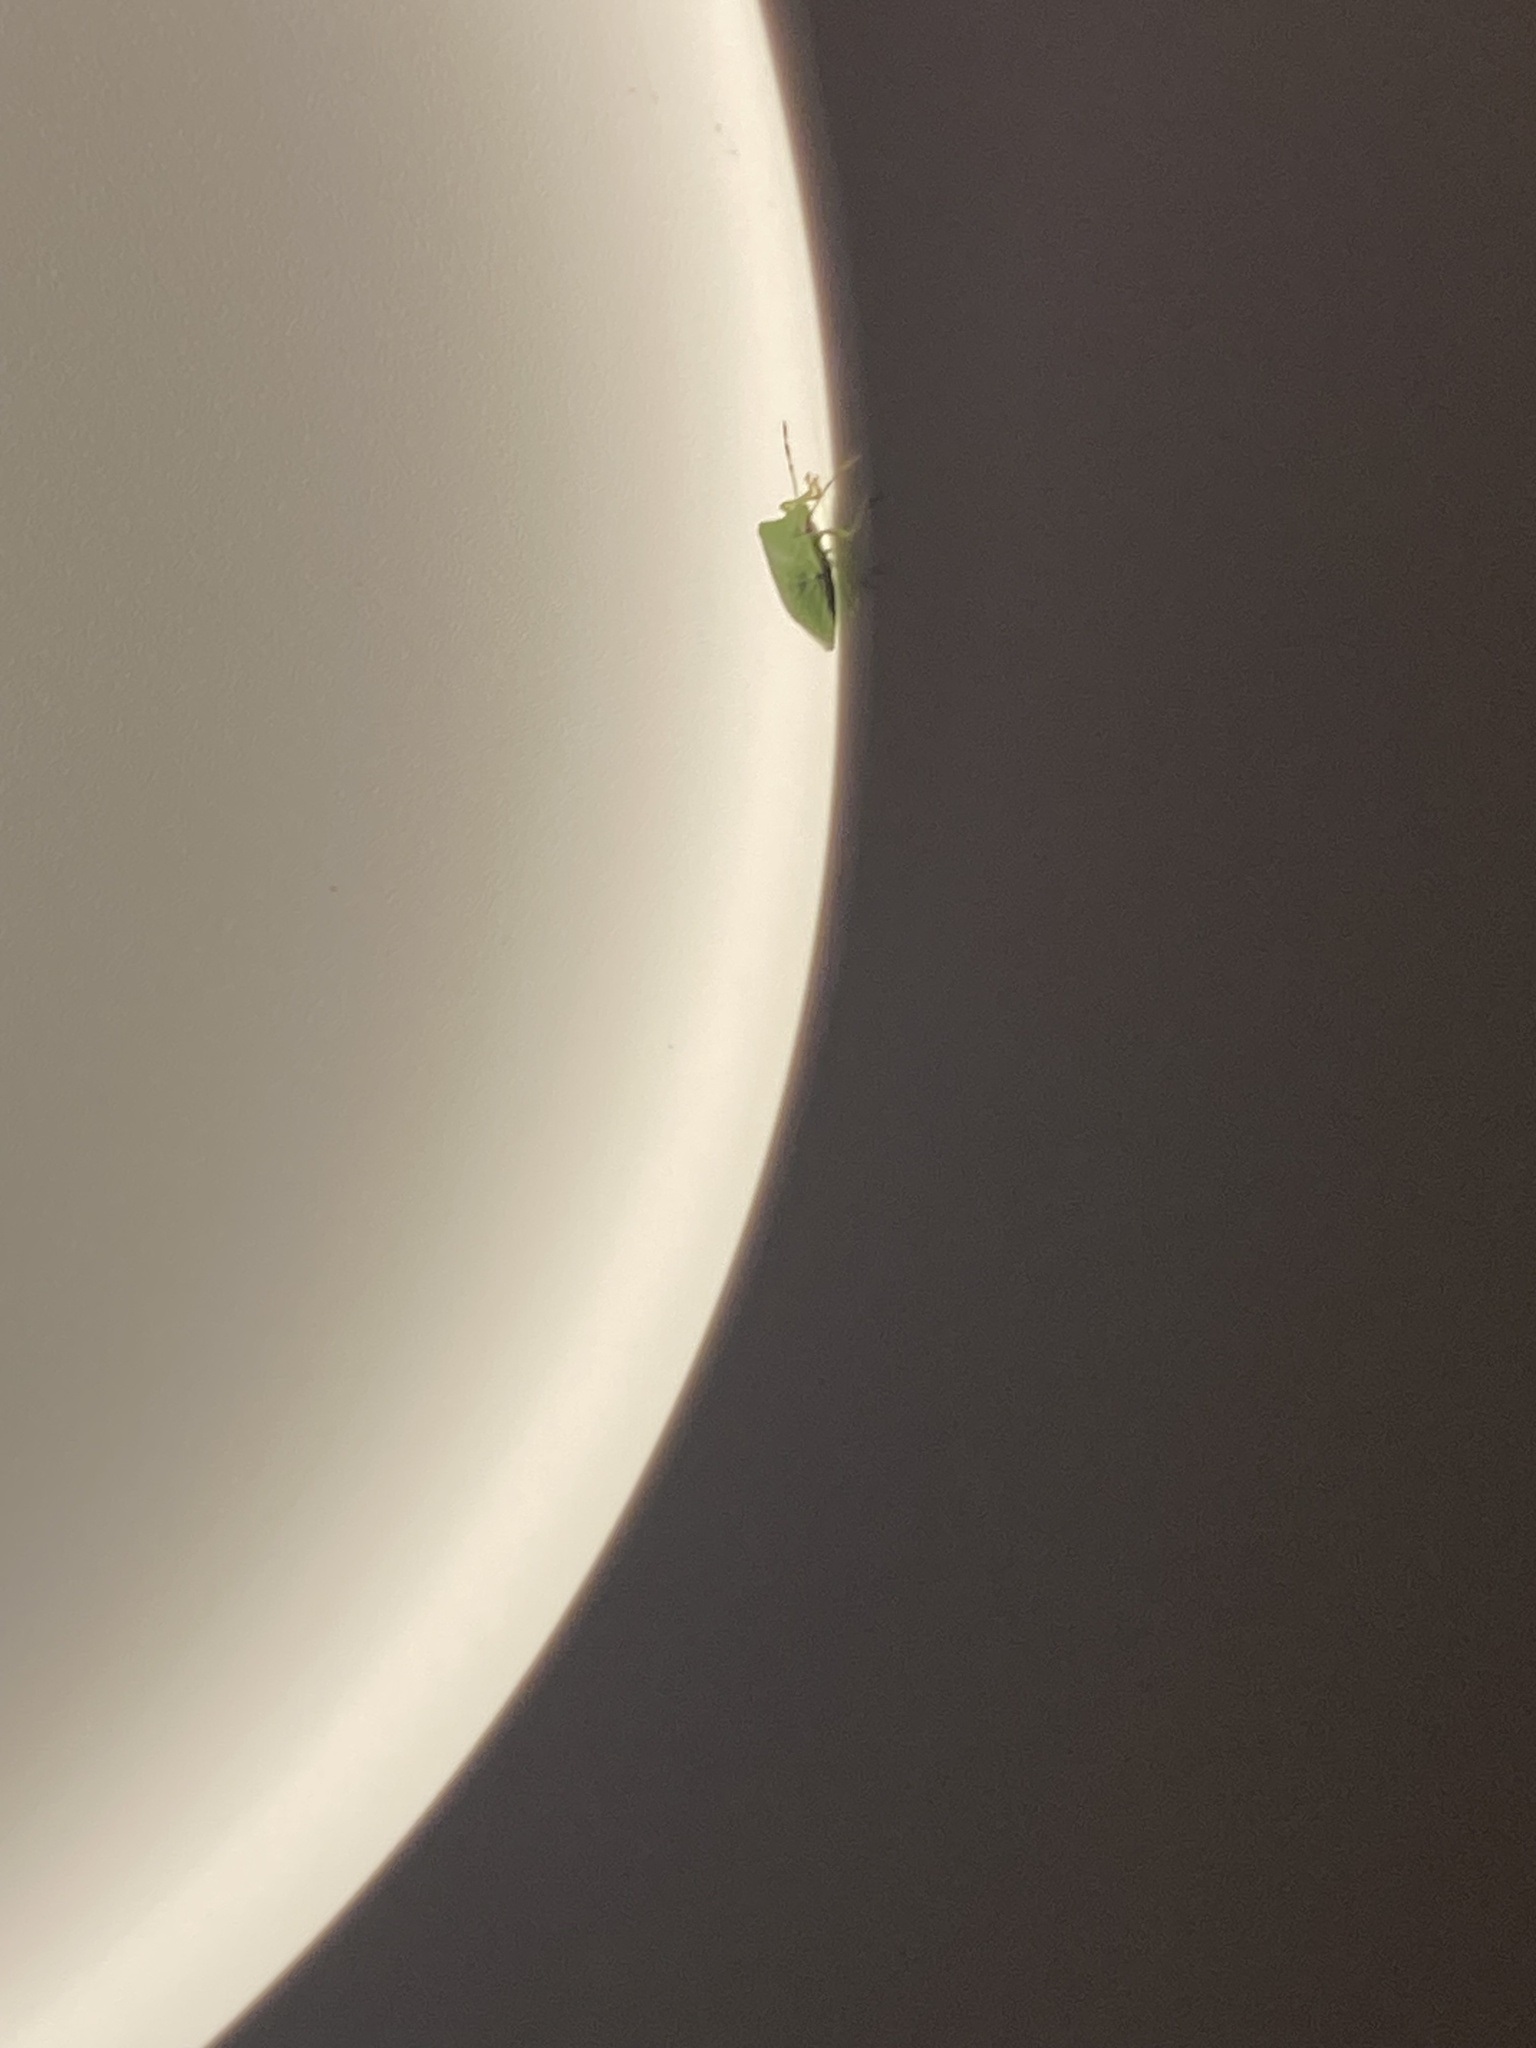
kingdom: Animalia
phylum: Arthropoda
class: Insecta
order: Hemiptera
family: Pentatomidae
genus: Nezara
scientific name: Nezara viridula
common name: Southern green stink bug
